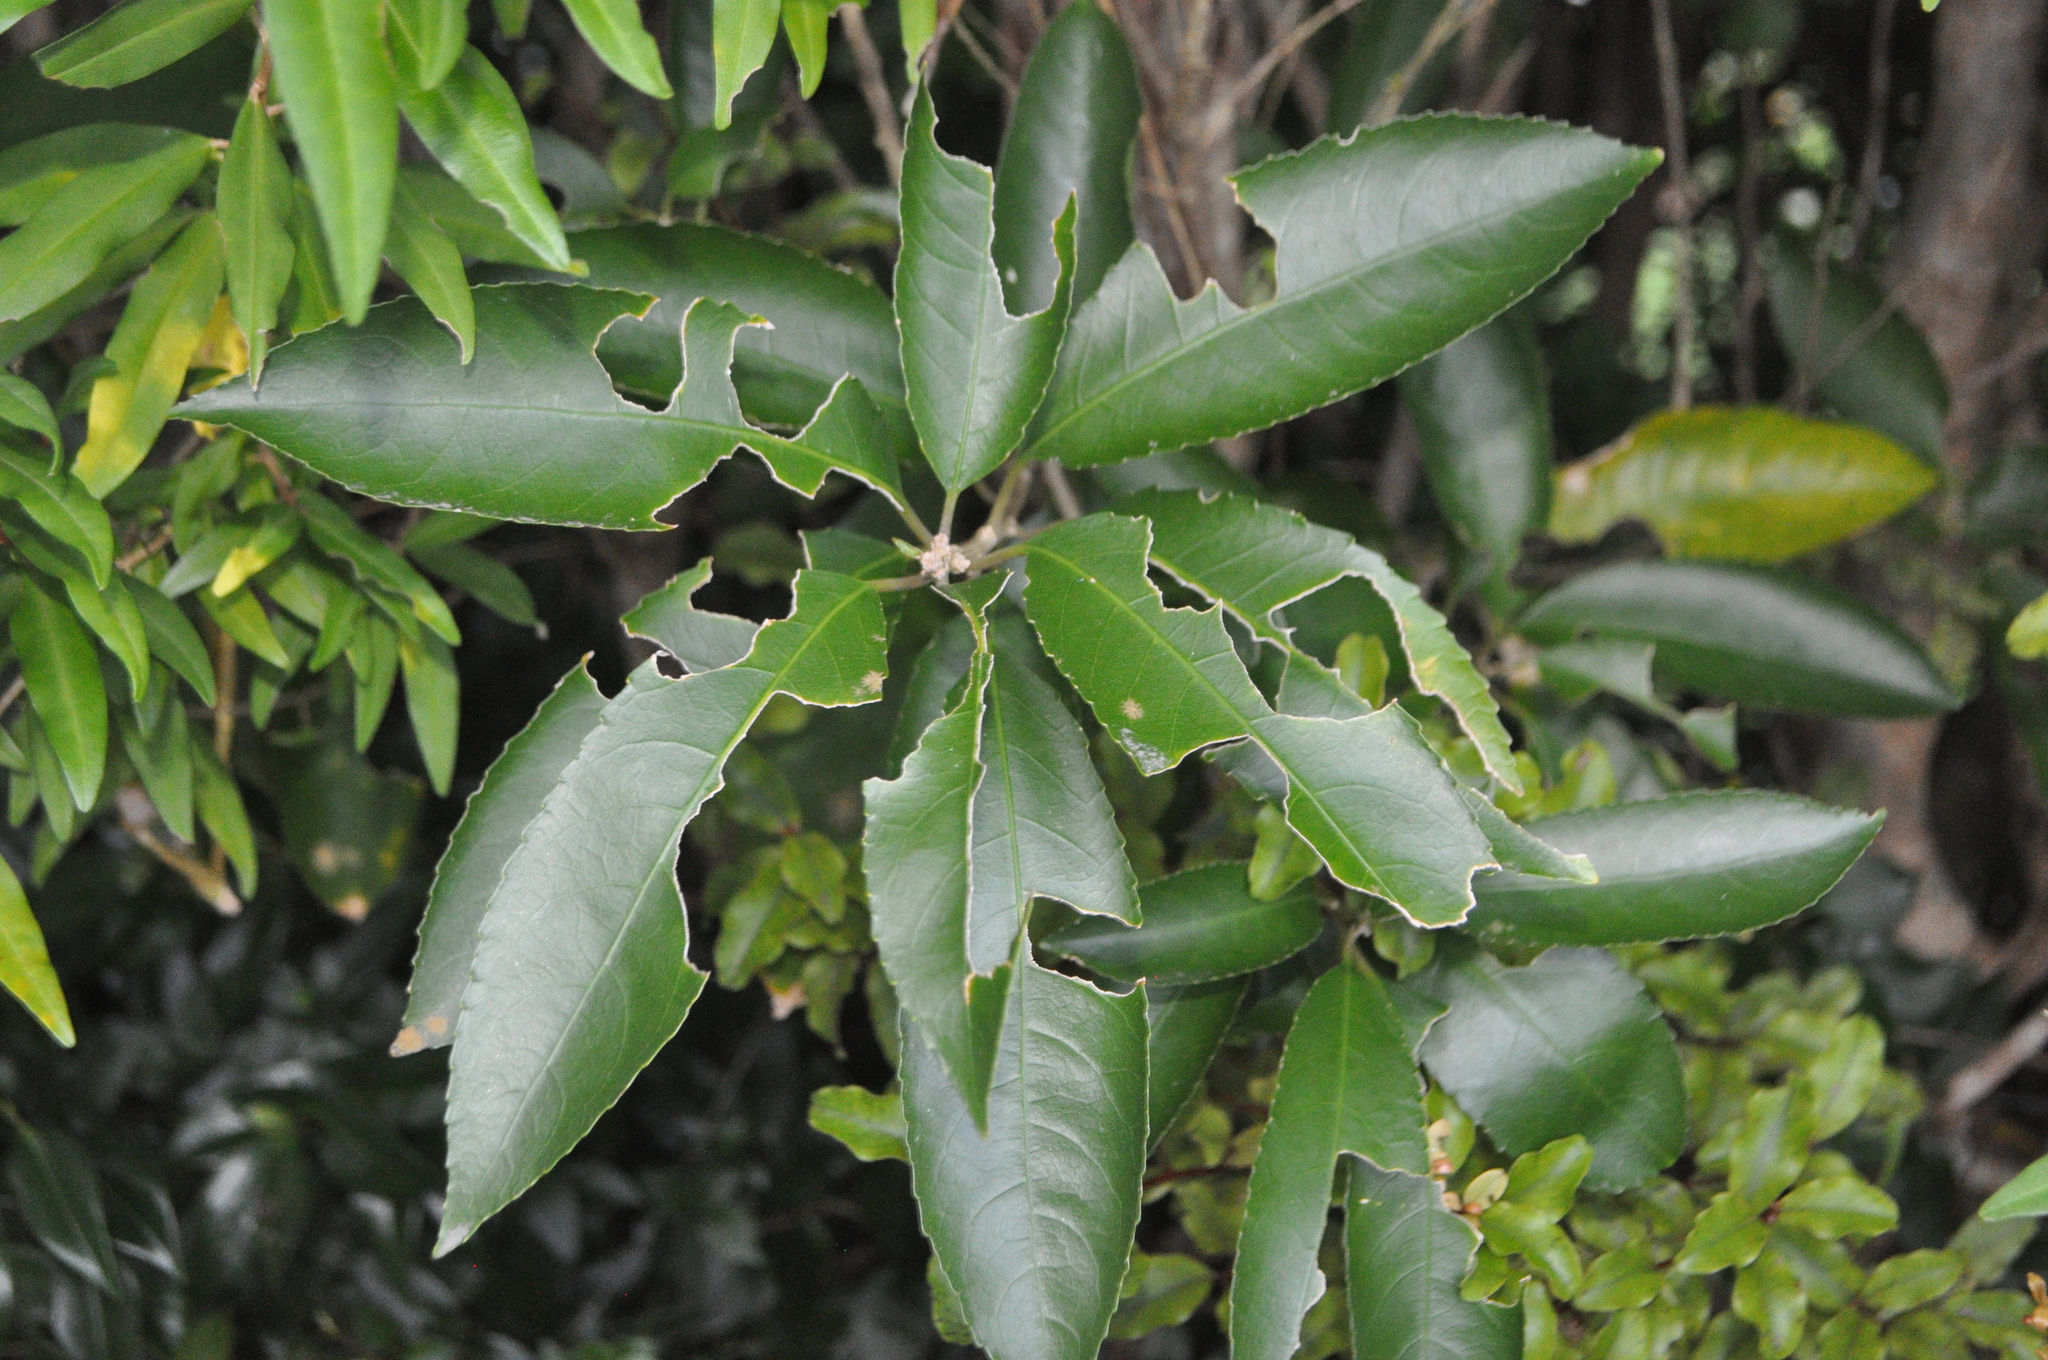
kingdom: Plantae
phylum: Tracheophyta
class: Magnoliopsida
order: Malpighiales
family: Violaceae
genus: Melicytus
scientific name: Melicytus ramiflorus
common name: Mahoe
